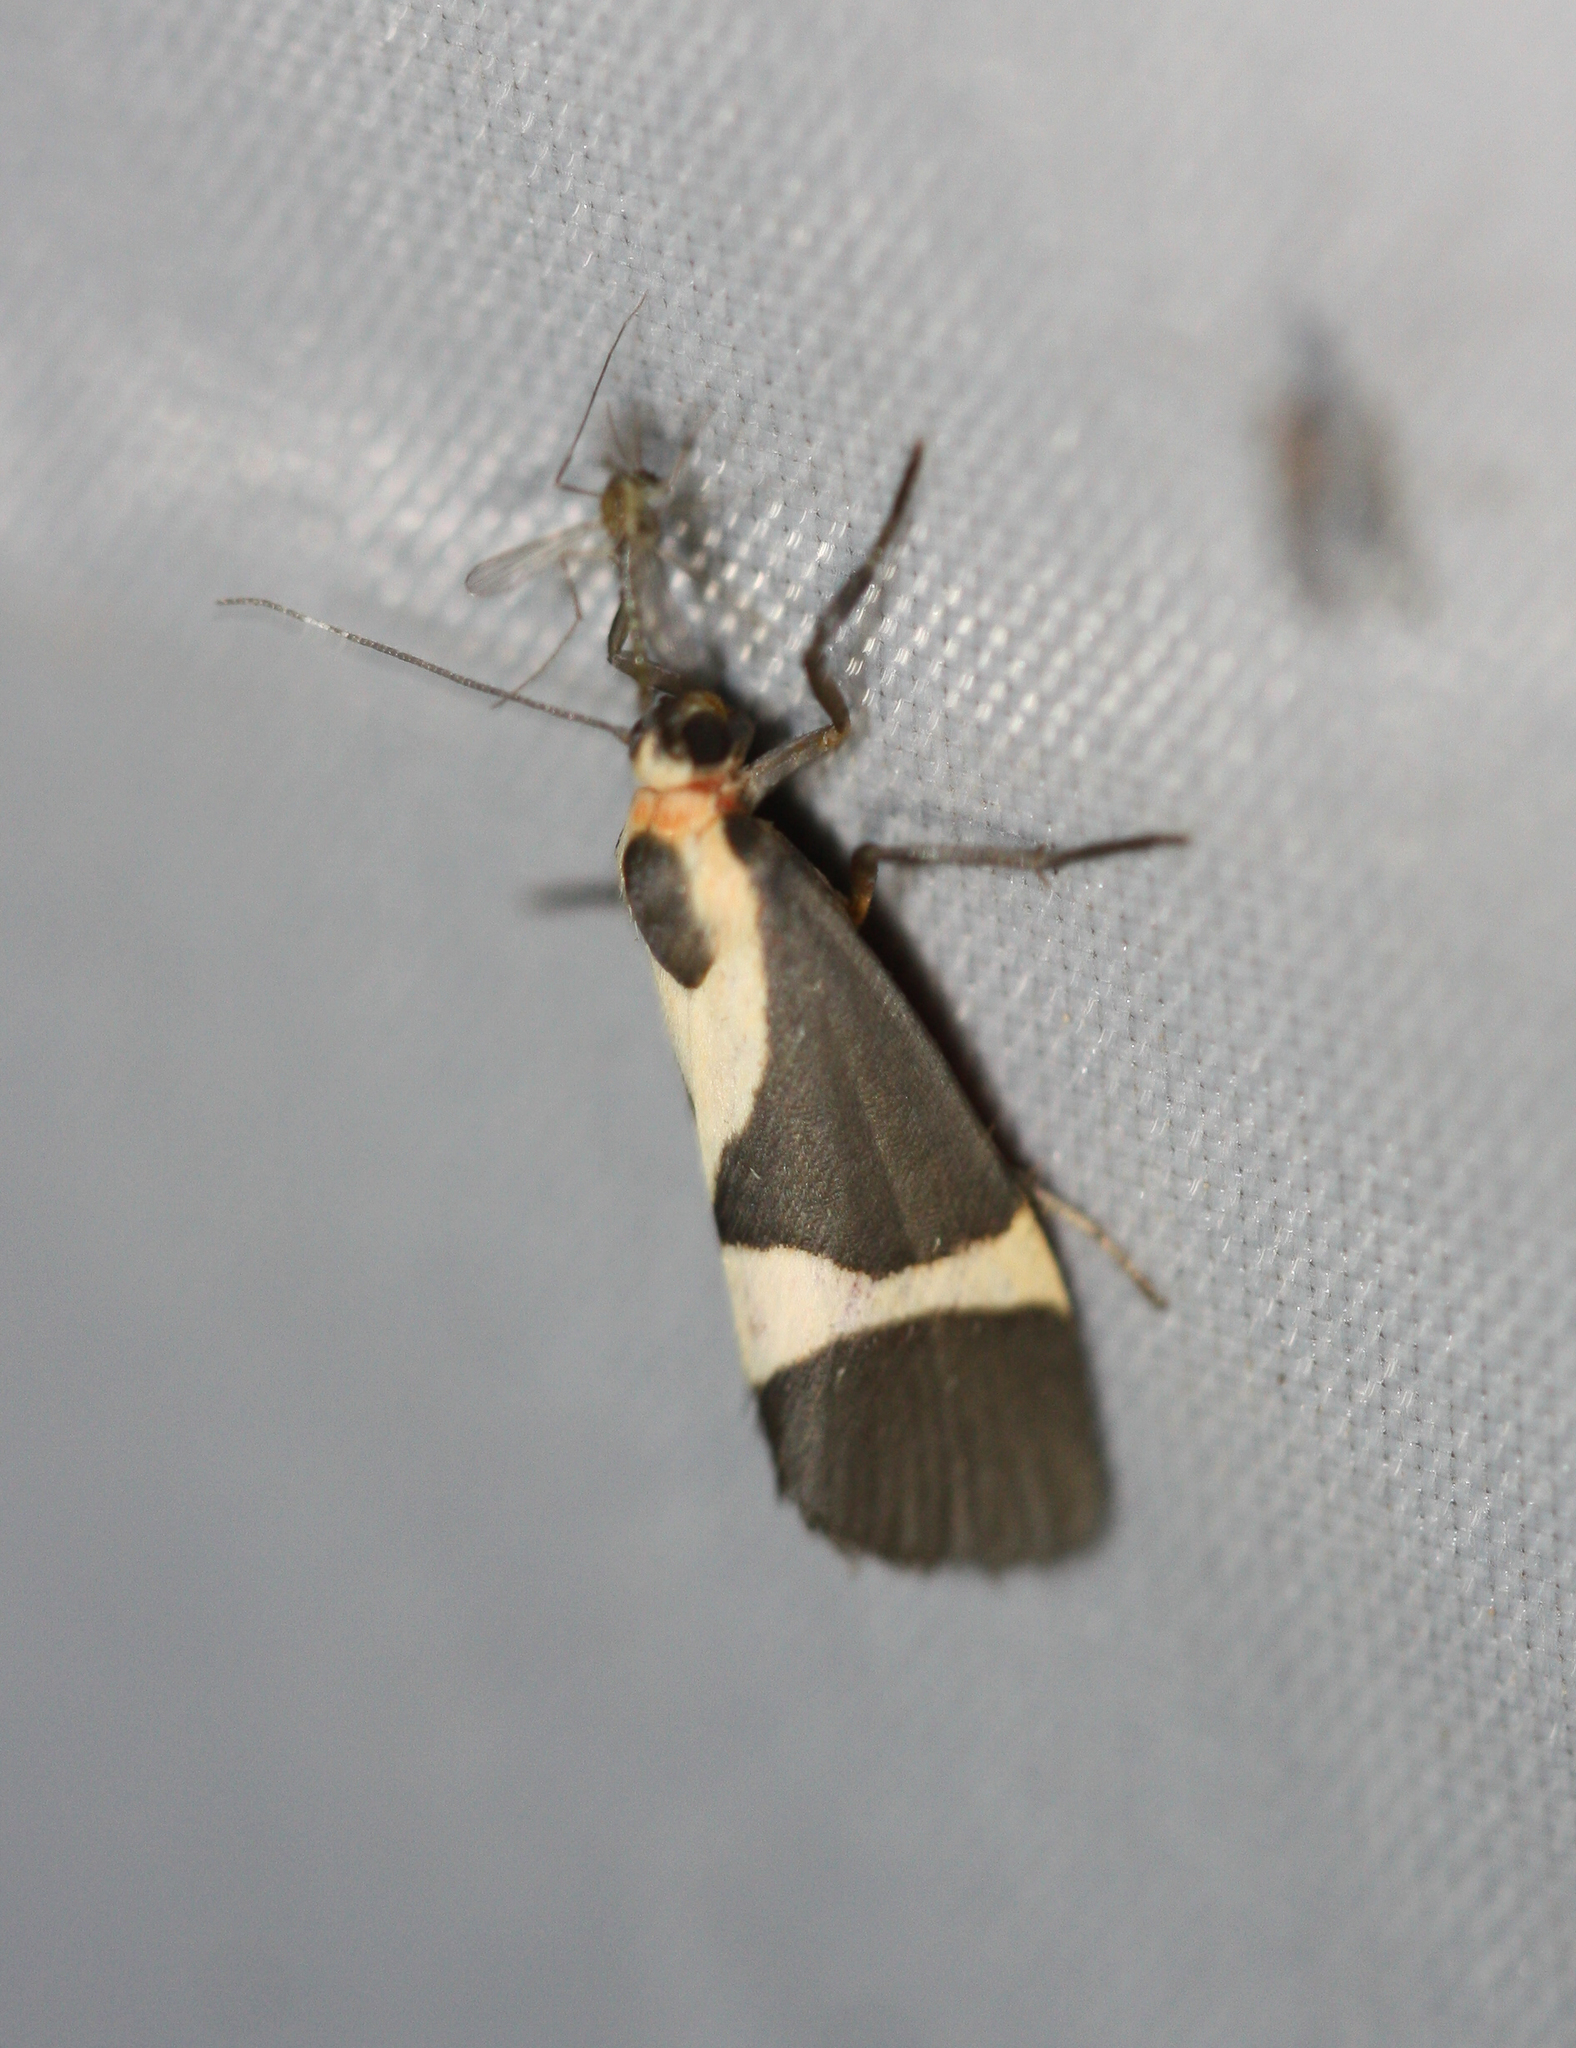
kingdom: Animalia
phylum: Arthropoda
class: Insecta
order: Lepidoptera
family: Erebidae
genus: Cisthene
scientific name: Cisthene tenuifascia
